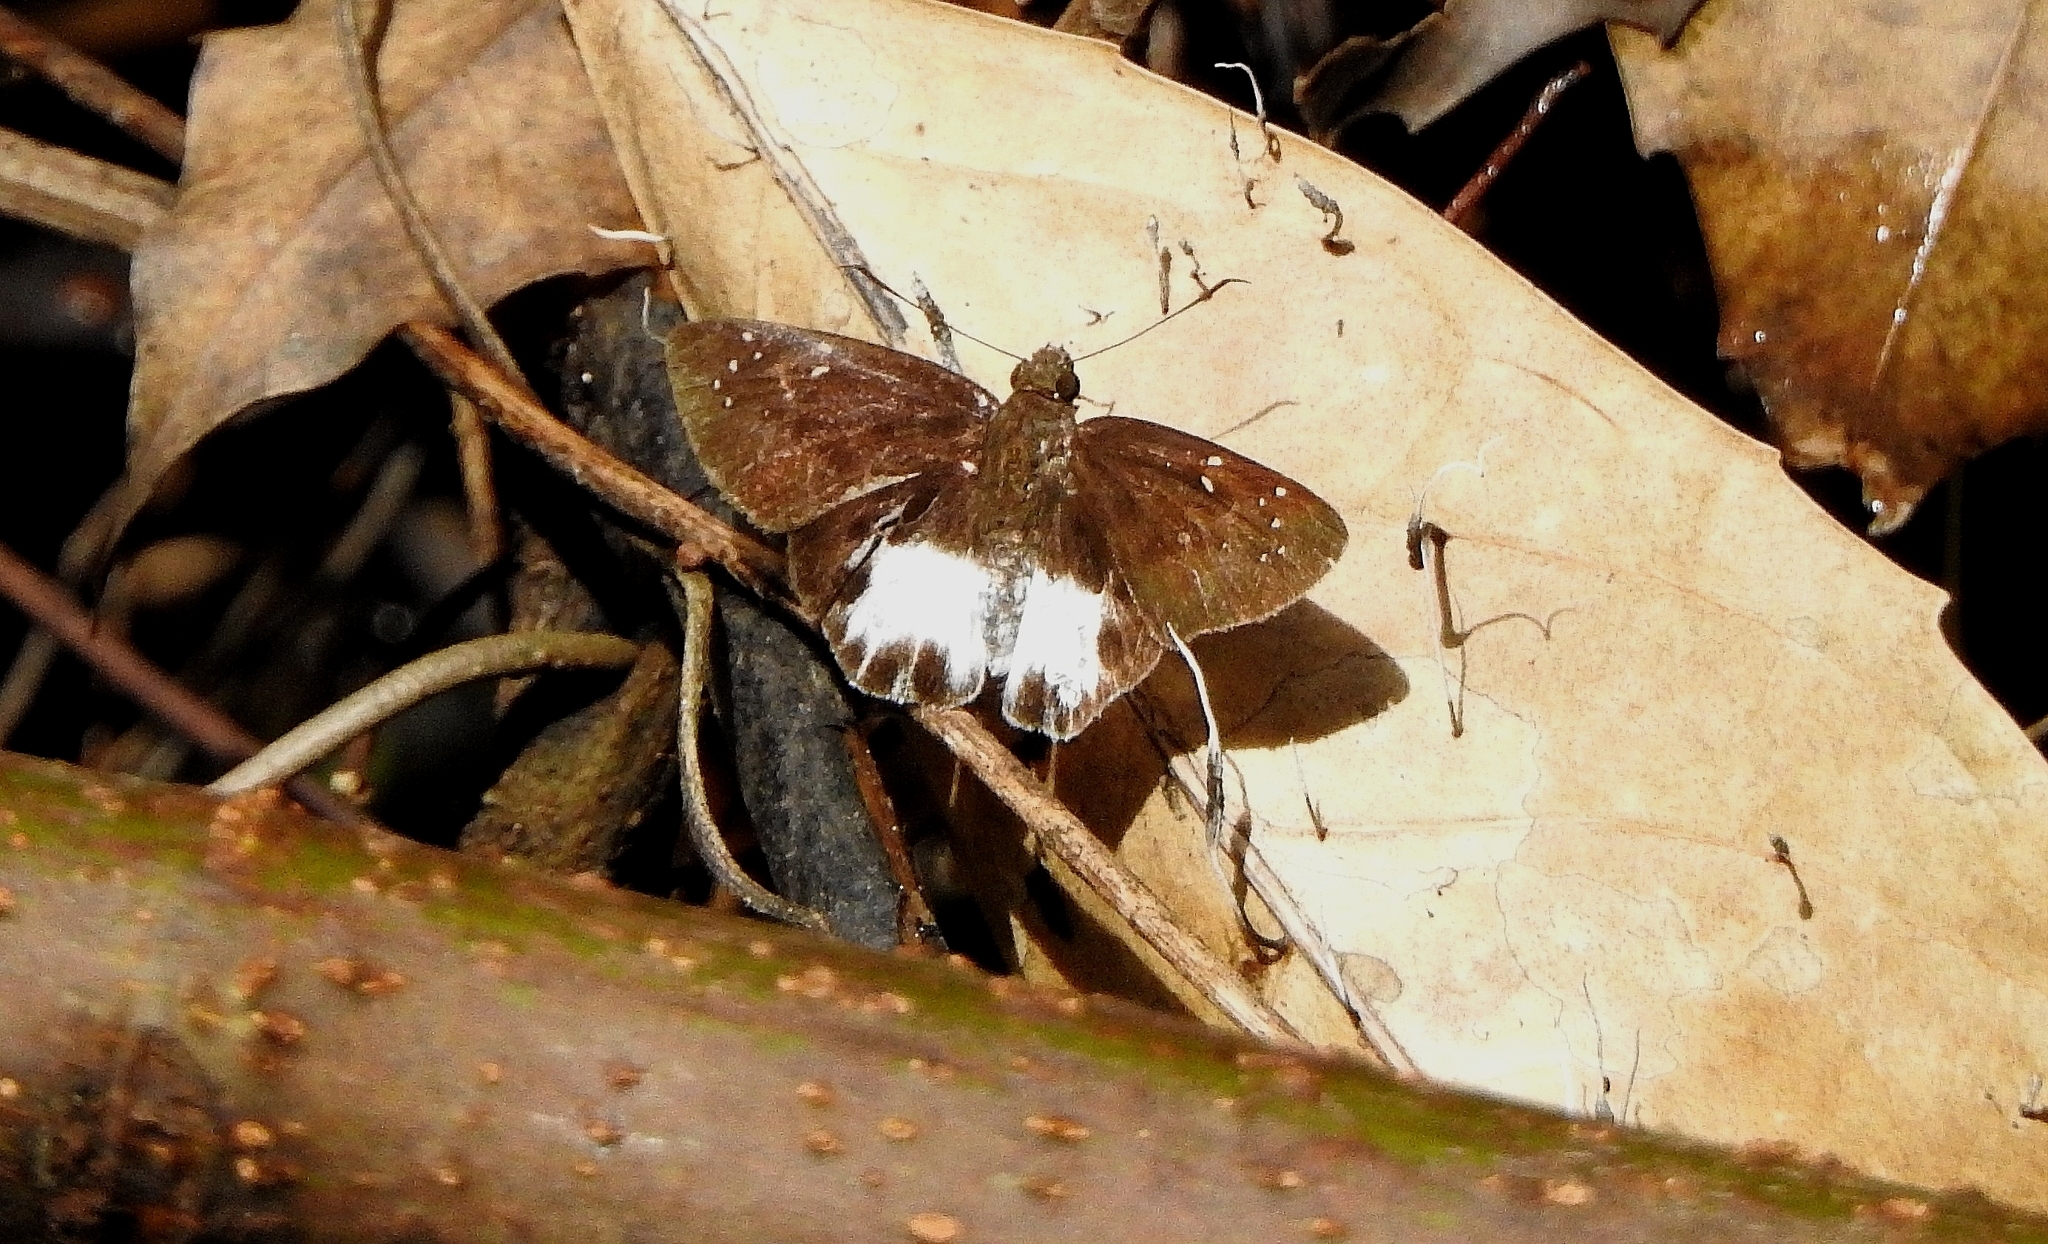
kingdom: Animalia
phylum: Arthropoda
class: Insecta
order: Lepidoptera
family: Hesperiidae
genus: Tagiades
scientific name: Tagiades litigiosa
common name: Water snow flat
